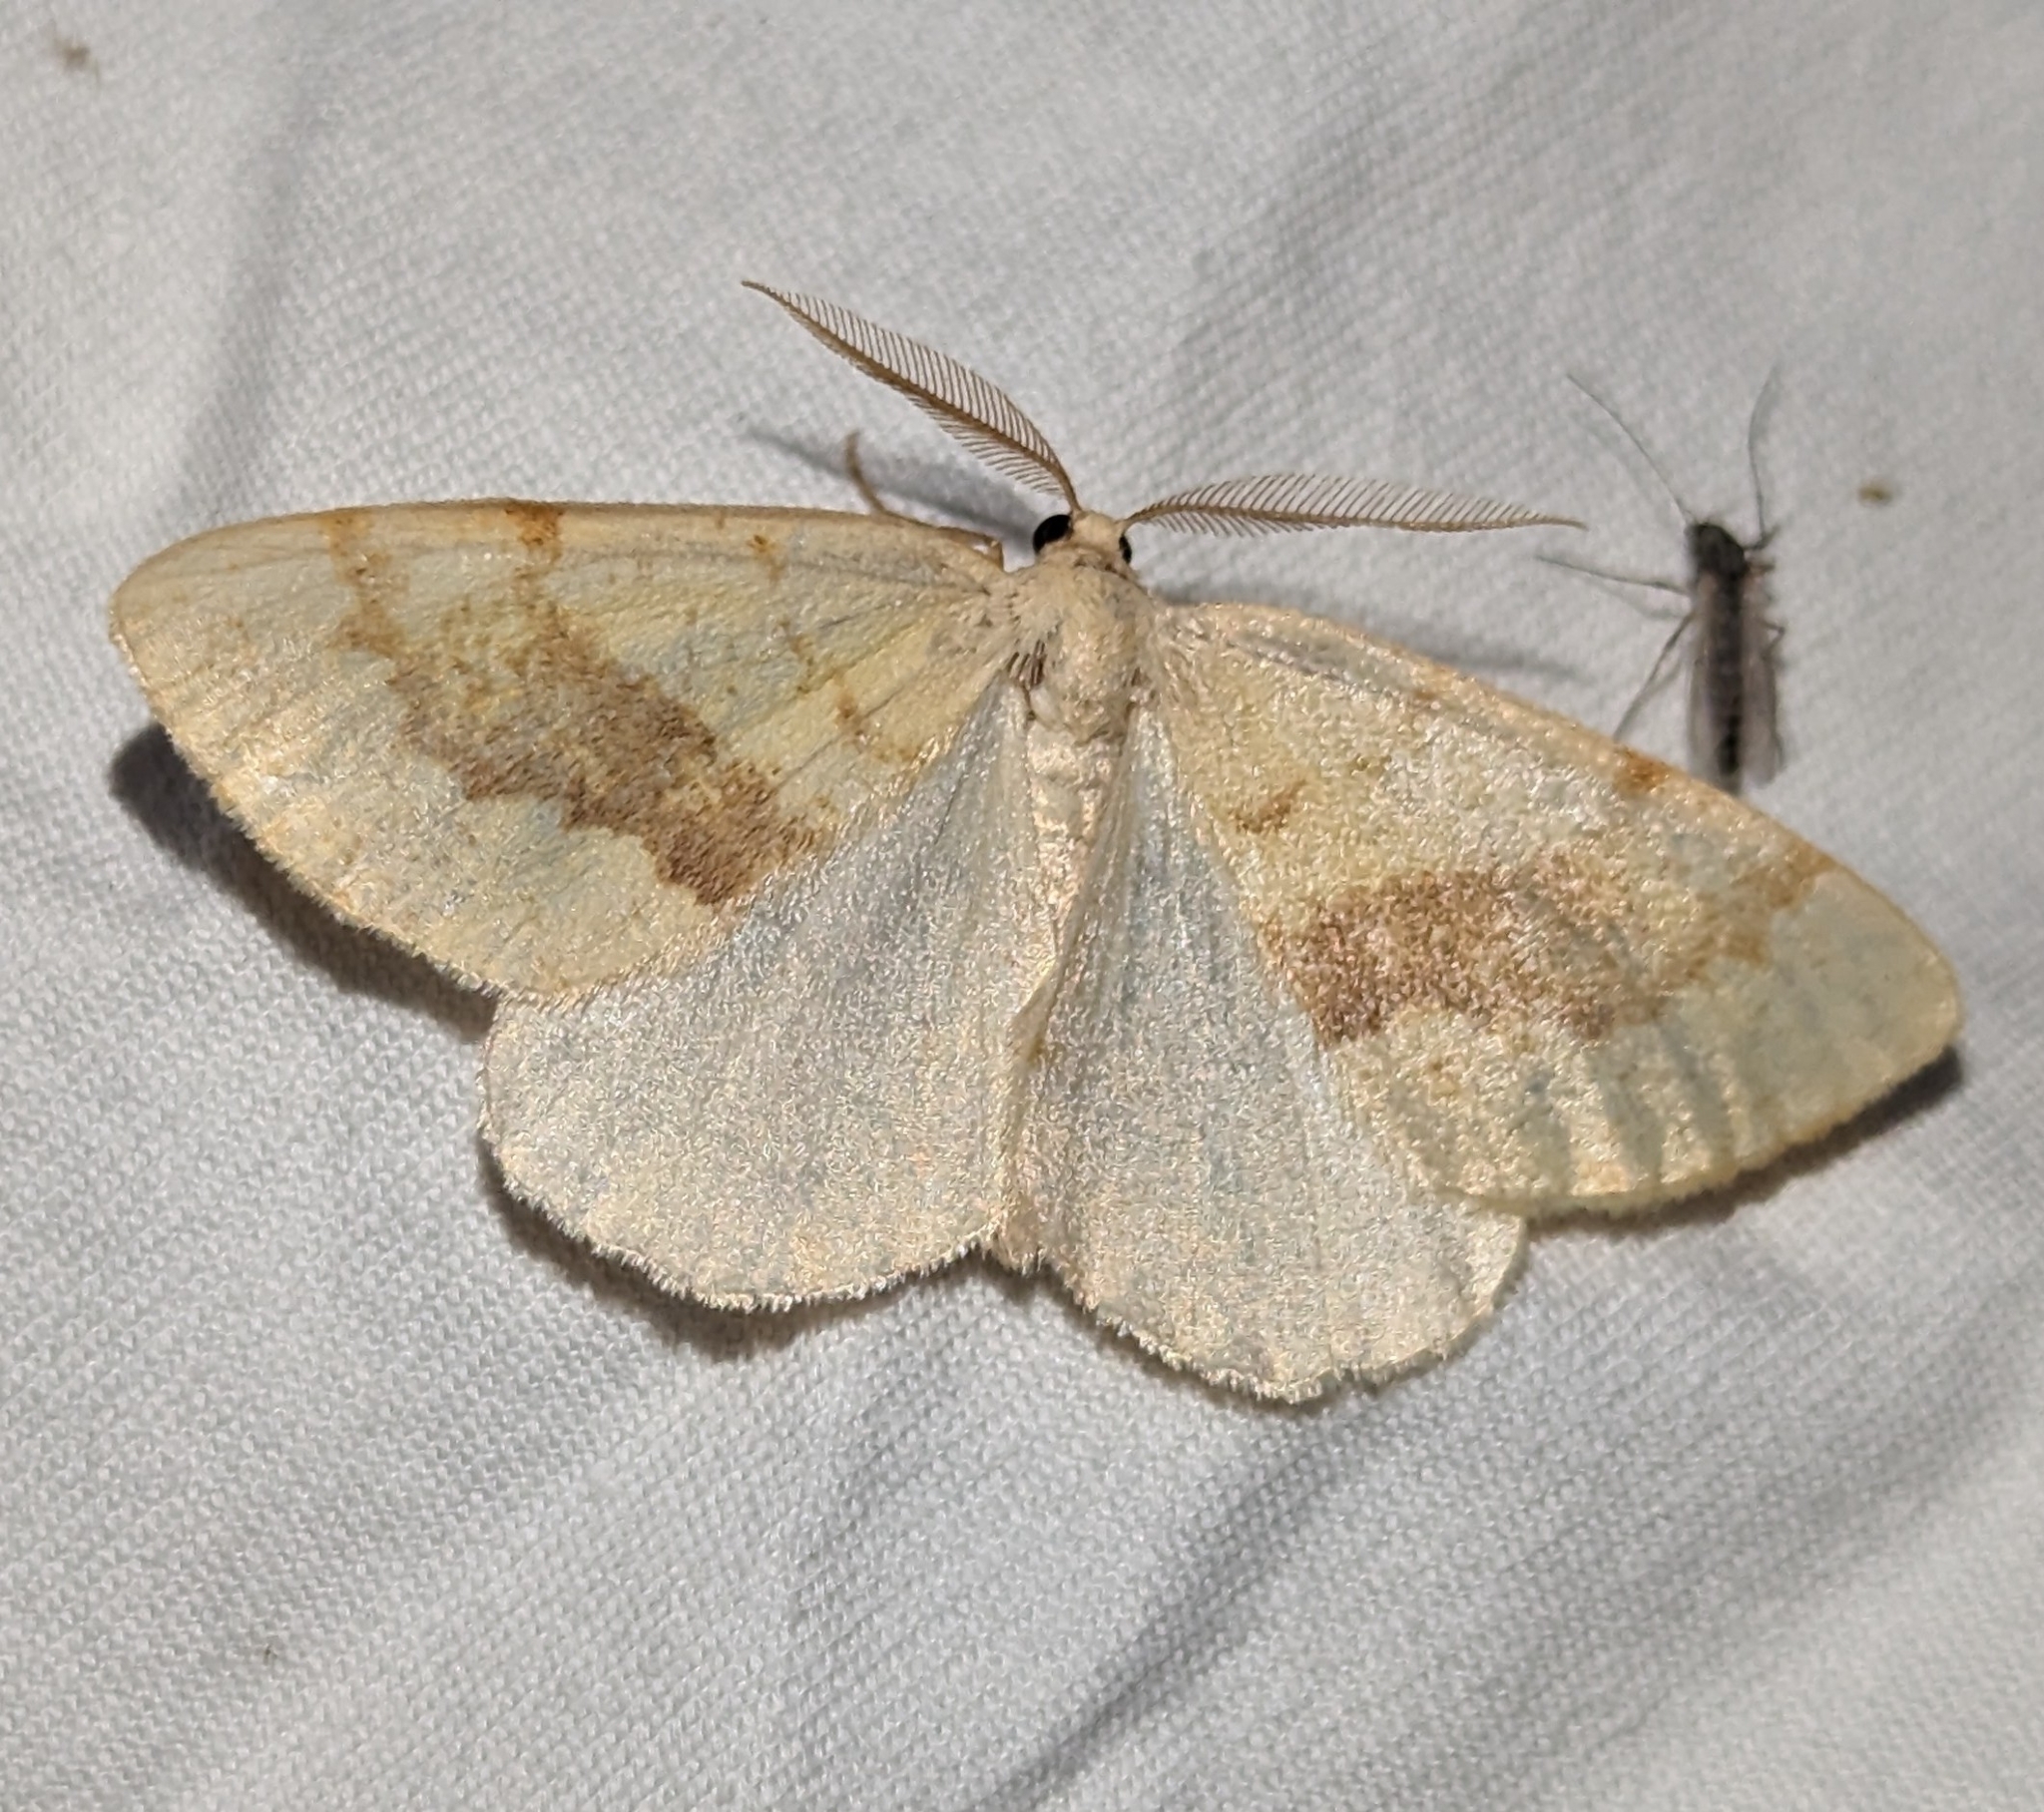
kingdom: Animalia
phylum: Arthropoda
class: Insecta
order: Lepidoptera
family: Geometridae
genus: Hesperumia
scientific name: Hesperumia sulphuraria
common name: Sulphur moth
